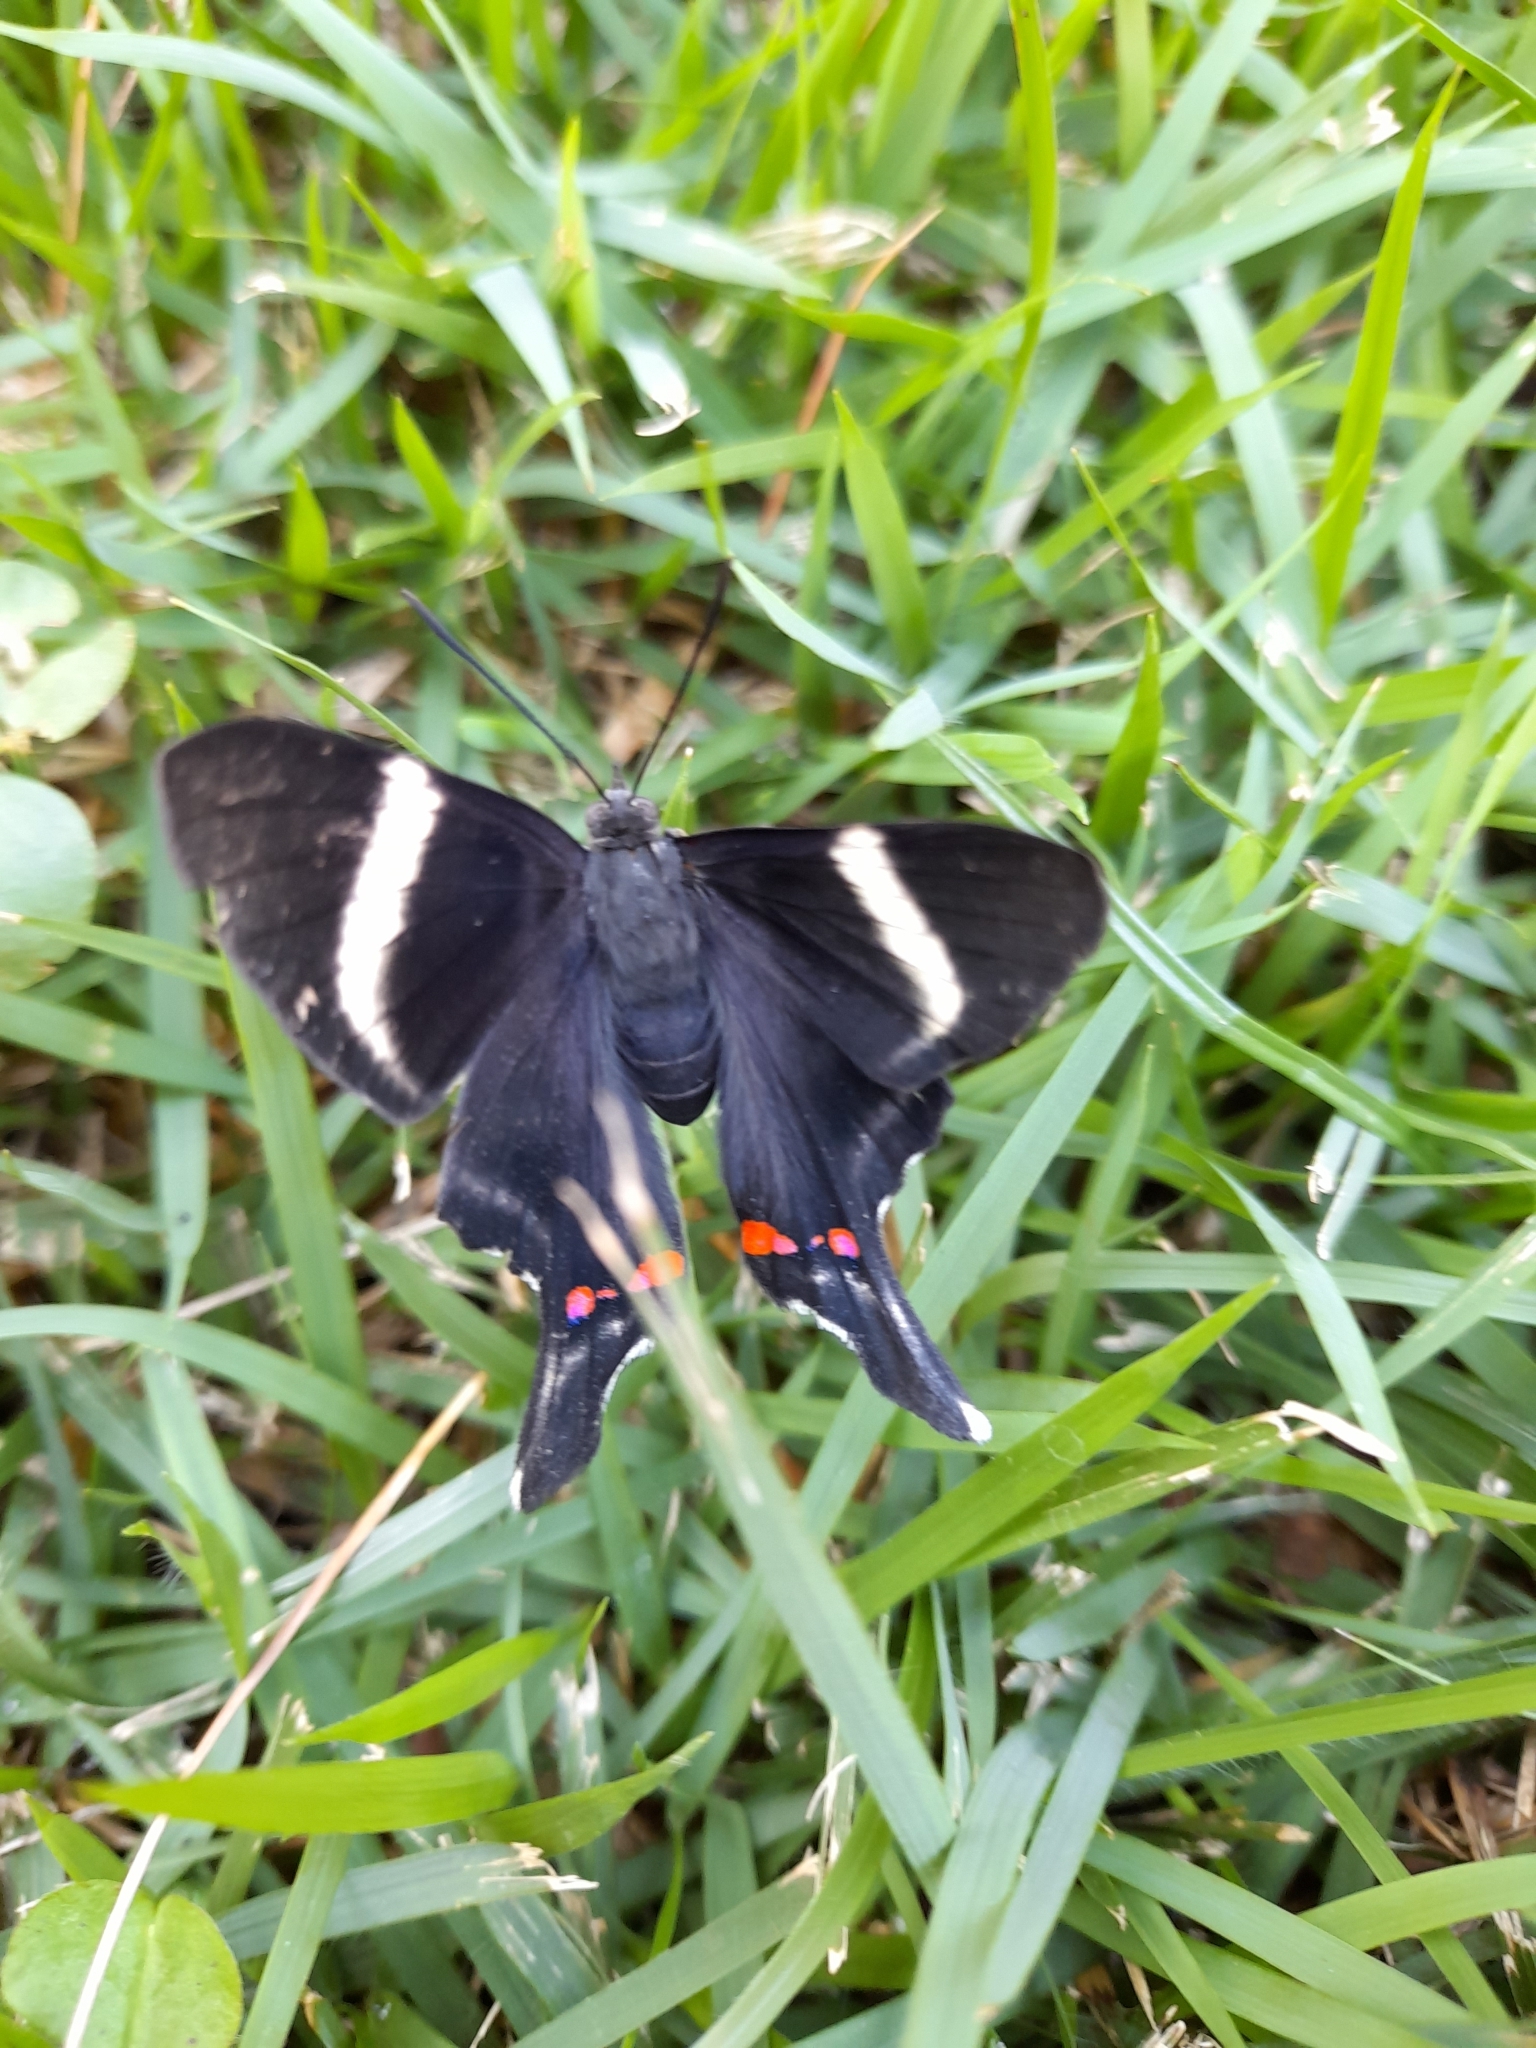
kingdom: Animalia
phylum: Arthropoda
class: Insecta
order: Lepidoptera
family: Riodinidae
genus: Rhetus
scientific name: Rhetus periander
